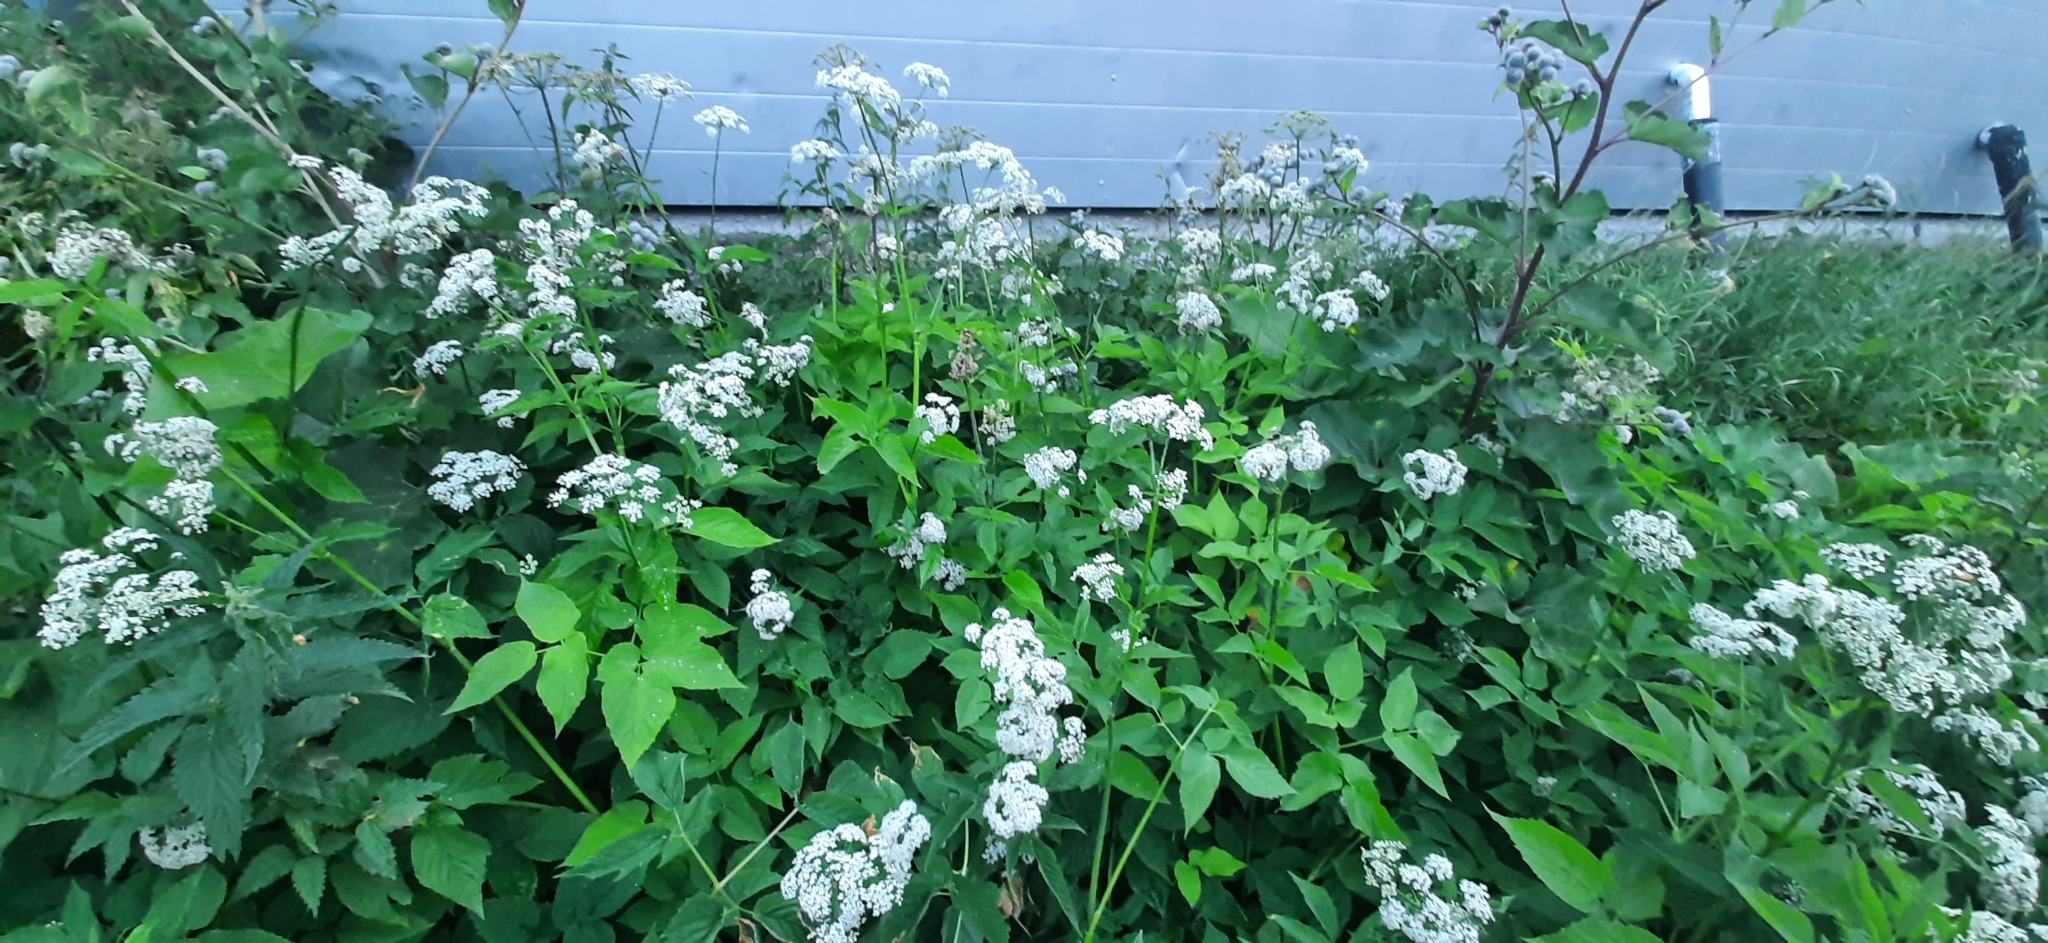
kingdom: Plantae
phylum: Tracheophyta
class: Magnoliopsida
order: Apiales
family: Apiaceae
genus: Aegopodium
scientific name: Aegopodium podagraria
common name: Ground-elder
